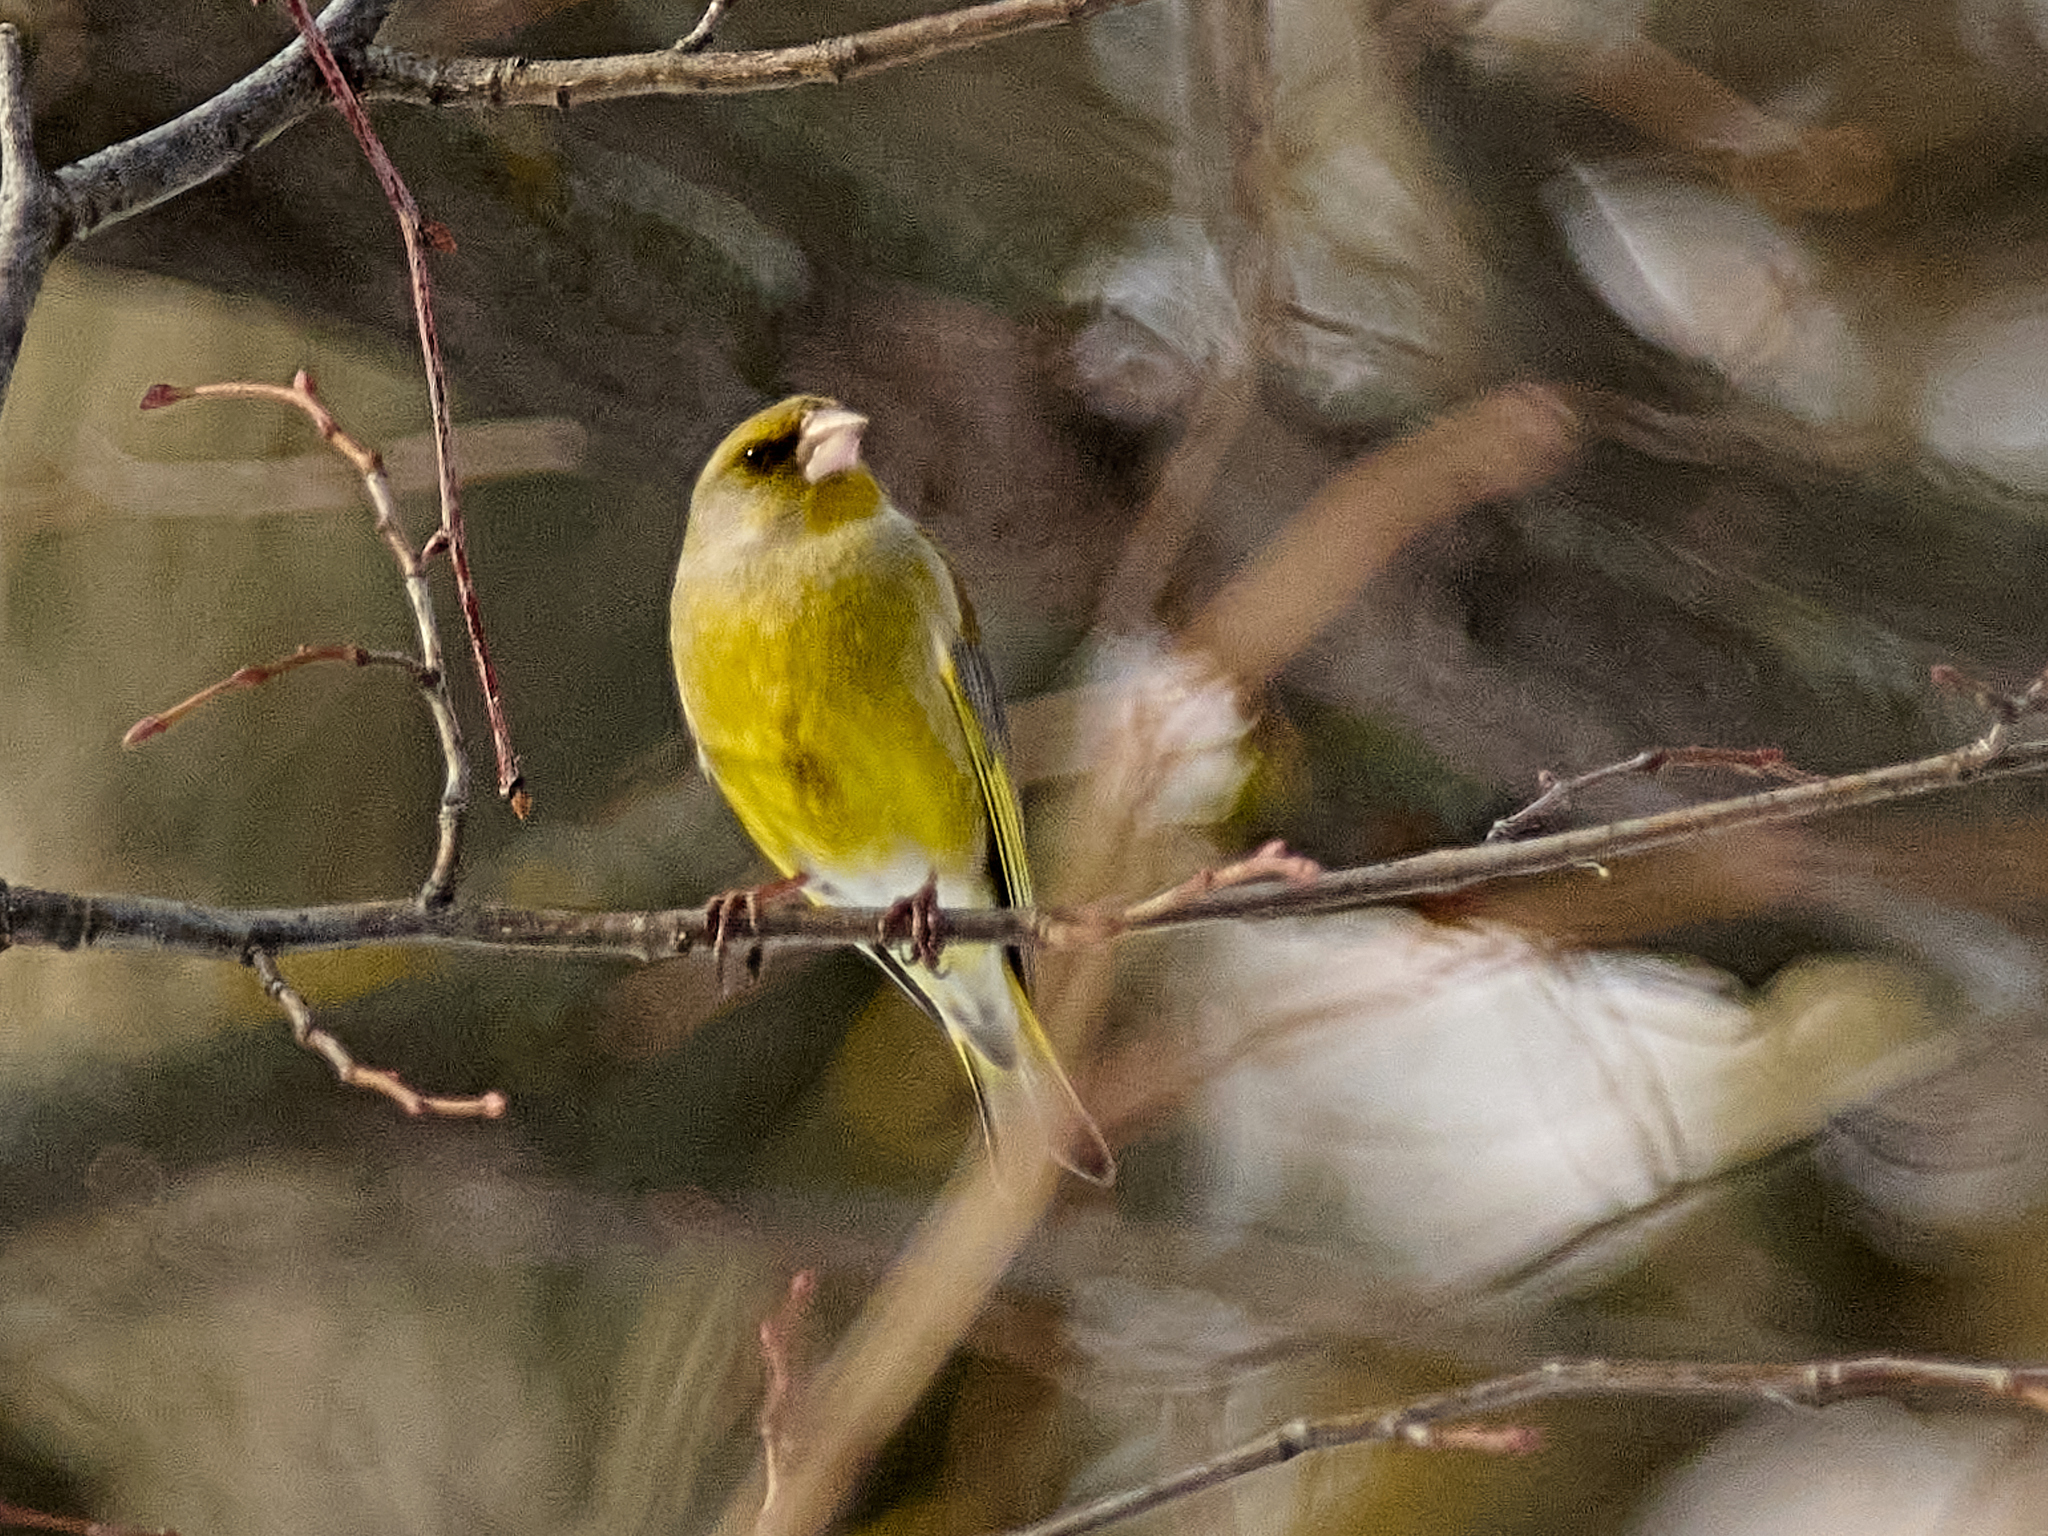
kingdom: Plantae
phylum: Tracheophyta
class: Liliopsida
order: Poales
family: Poaceae
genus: Chloris
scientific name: Chloris chloris
